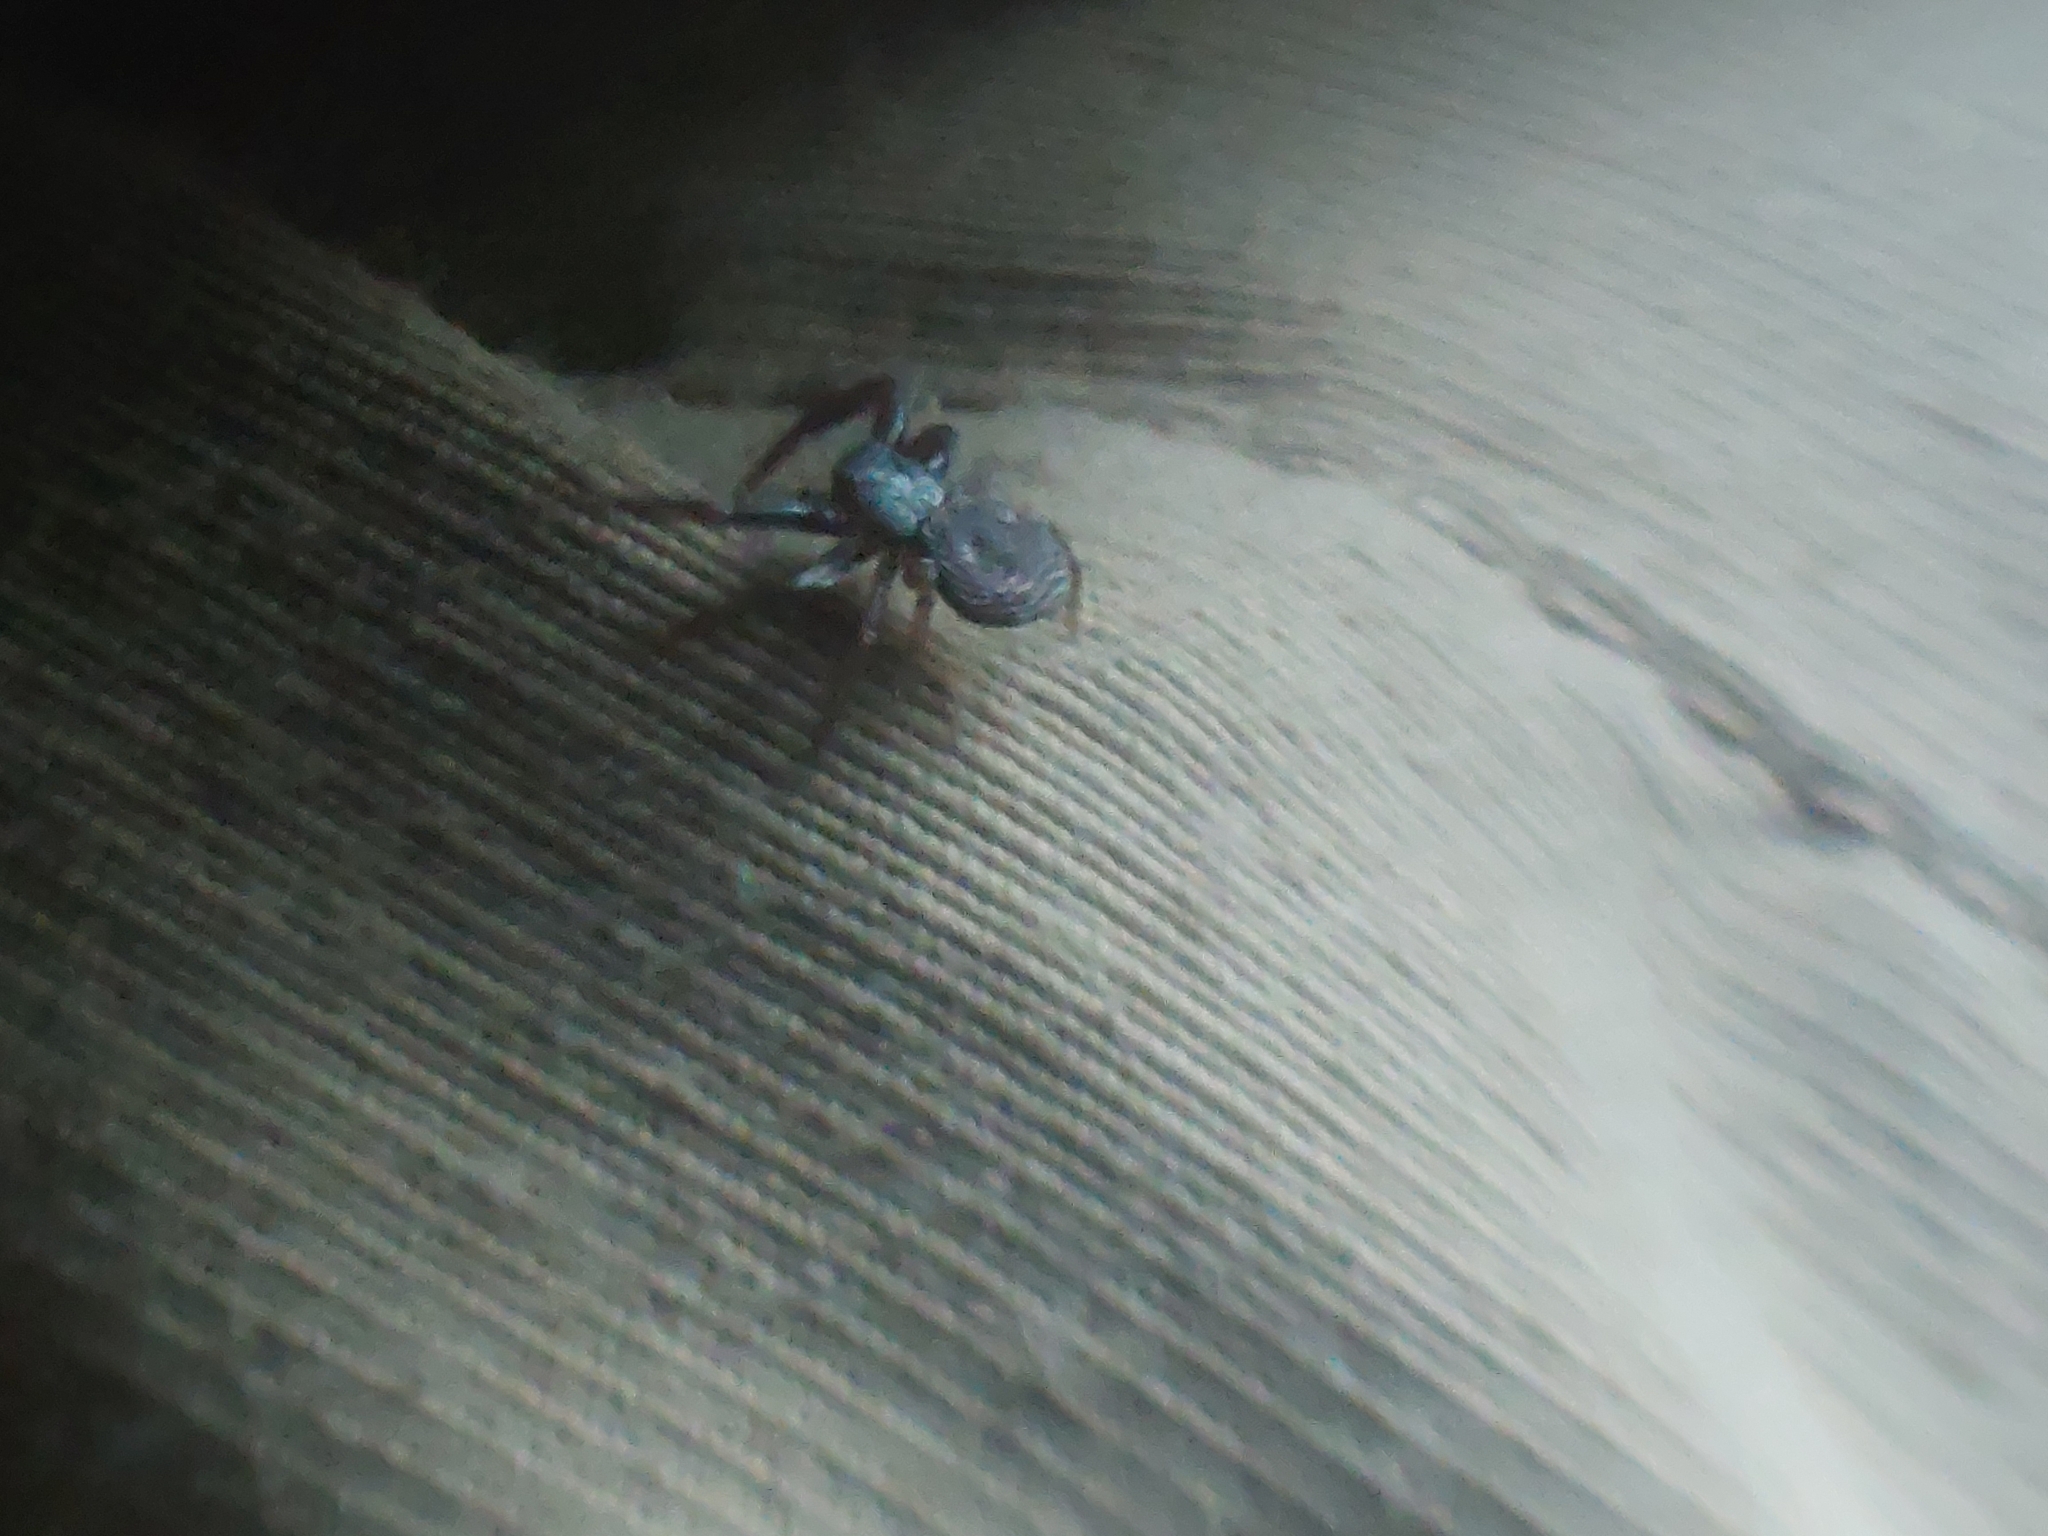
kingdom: Animalia
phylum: Arthropoda
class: Arachnida
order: Araneae
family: Thomisidae
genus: Coriarachne
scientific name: Coriarachne depressa
